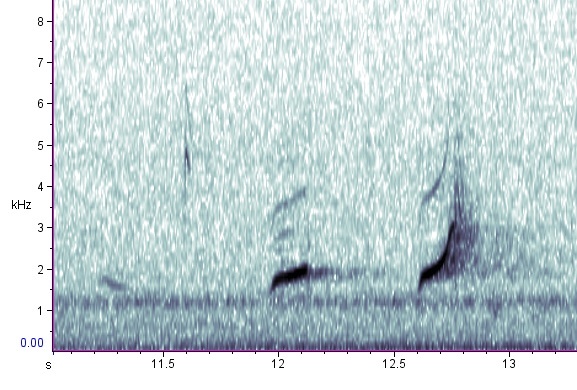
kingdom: Animalia
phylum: Chordata
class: Aves
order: Galliformes
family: Odontophoridae
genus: Colinus
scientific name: Colinus virginianus
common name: Northern bobwhite
